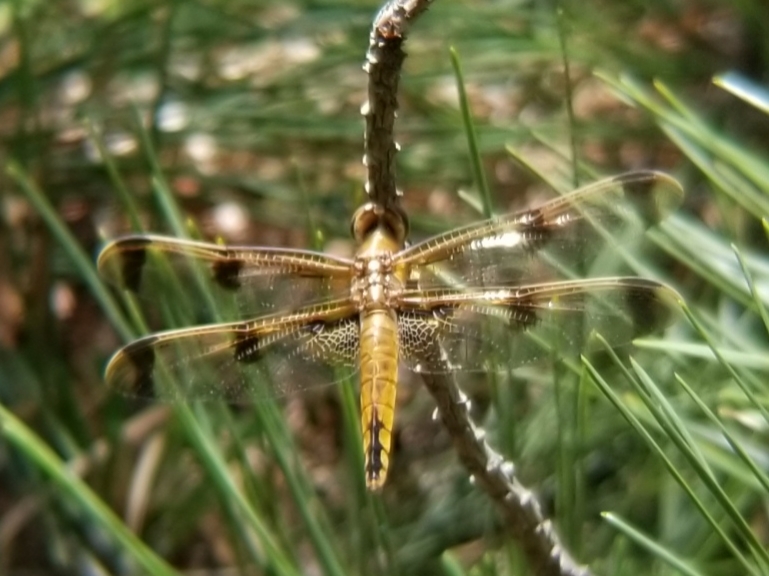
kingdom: Animalia
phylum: Arthropoda
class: Insecta
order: Odonata
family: Libellulidae
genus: Libellula
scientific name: Libellula semifasciata
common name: Painted skimmer
